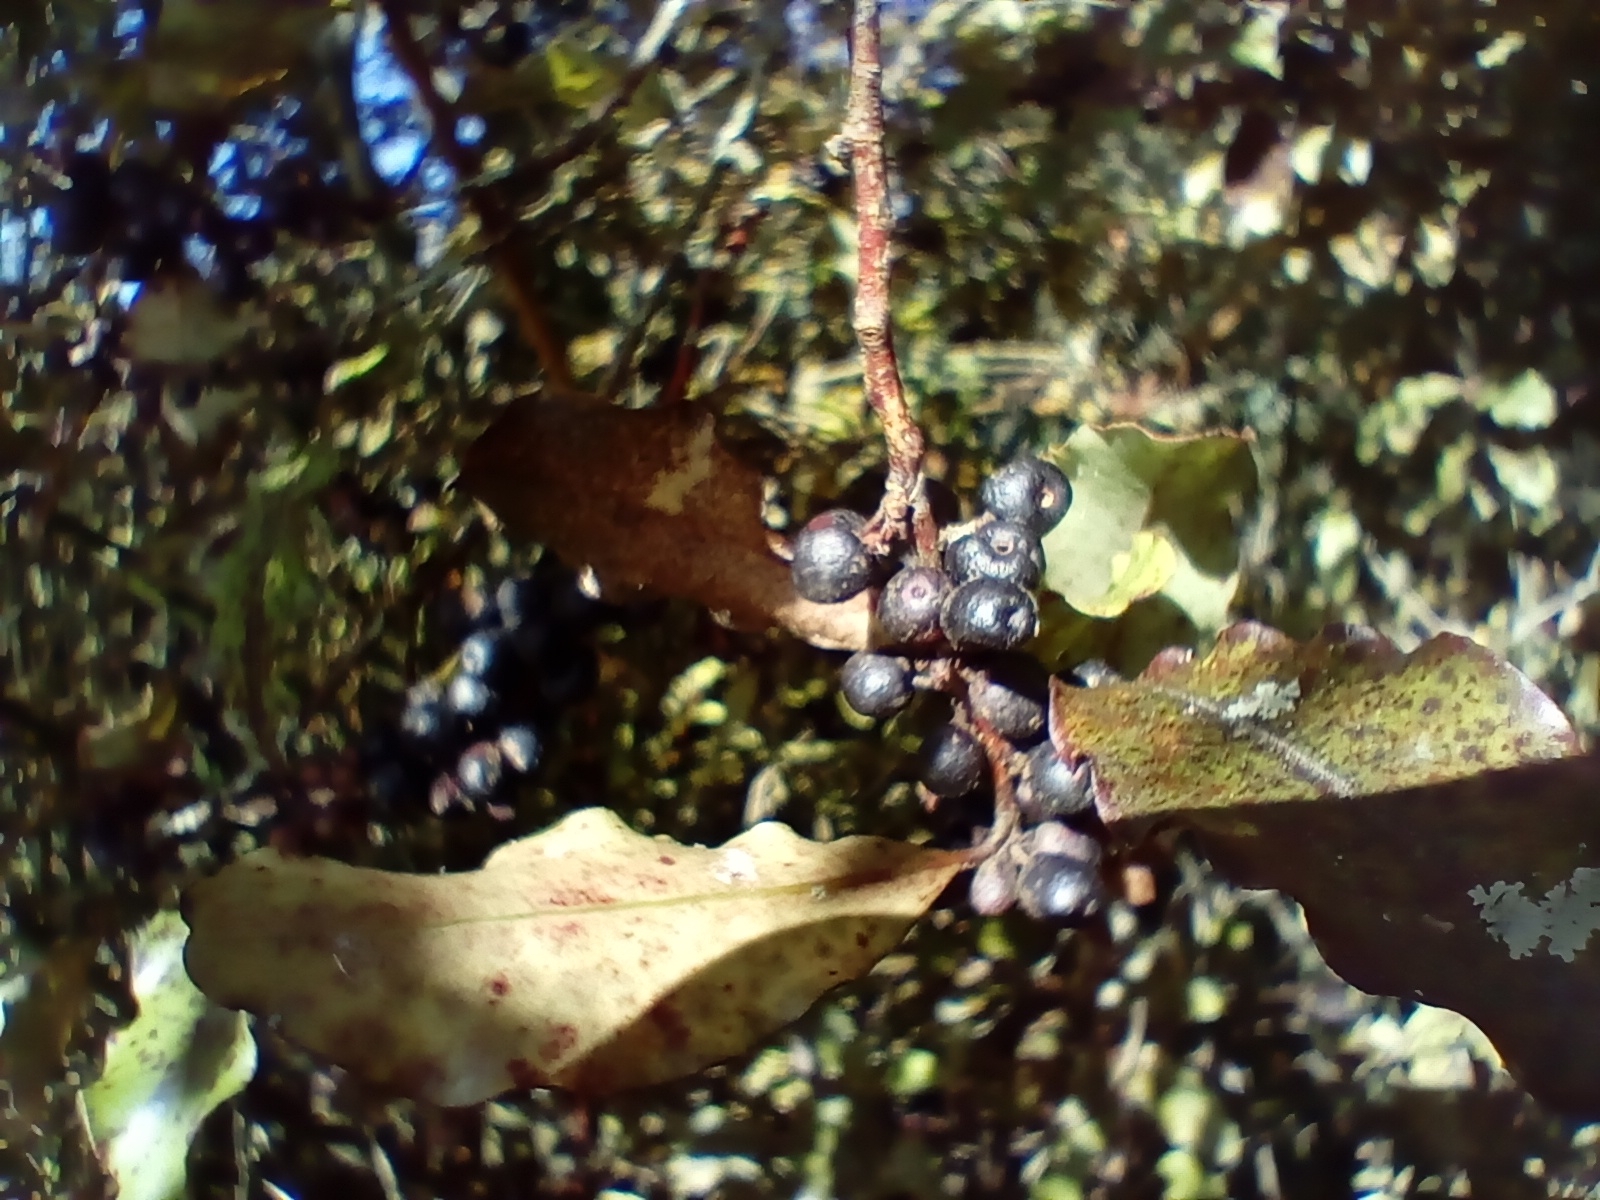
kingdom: Plantae
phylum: Tracheophyta
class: Magnoliopsida
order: Ericales
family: Primulaceae
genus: Myrsine
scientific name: Myrsine australis
